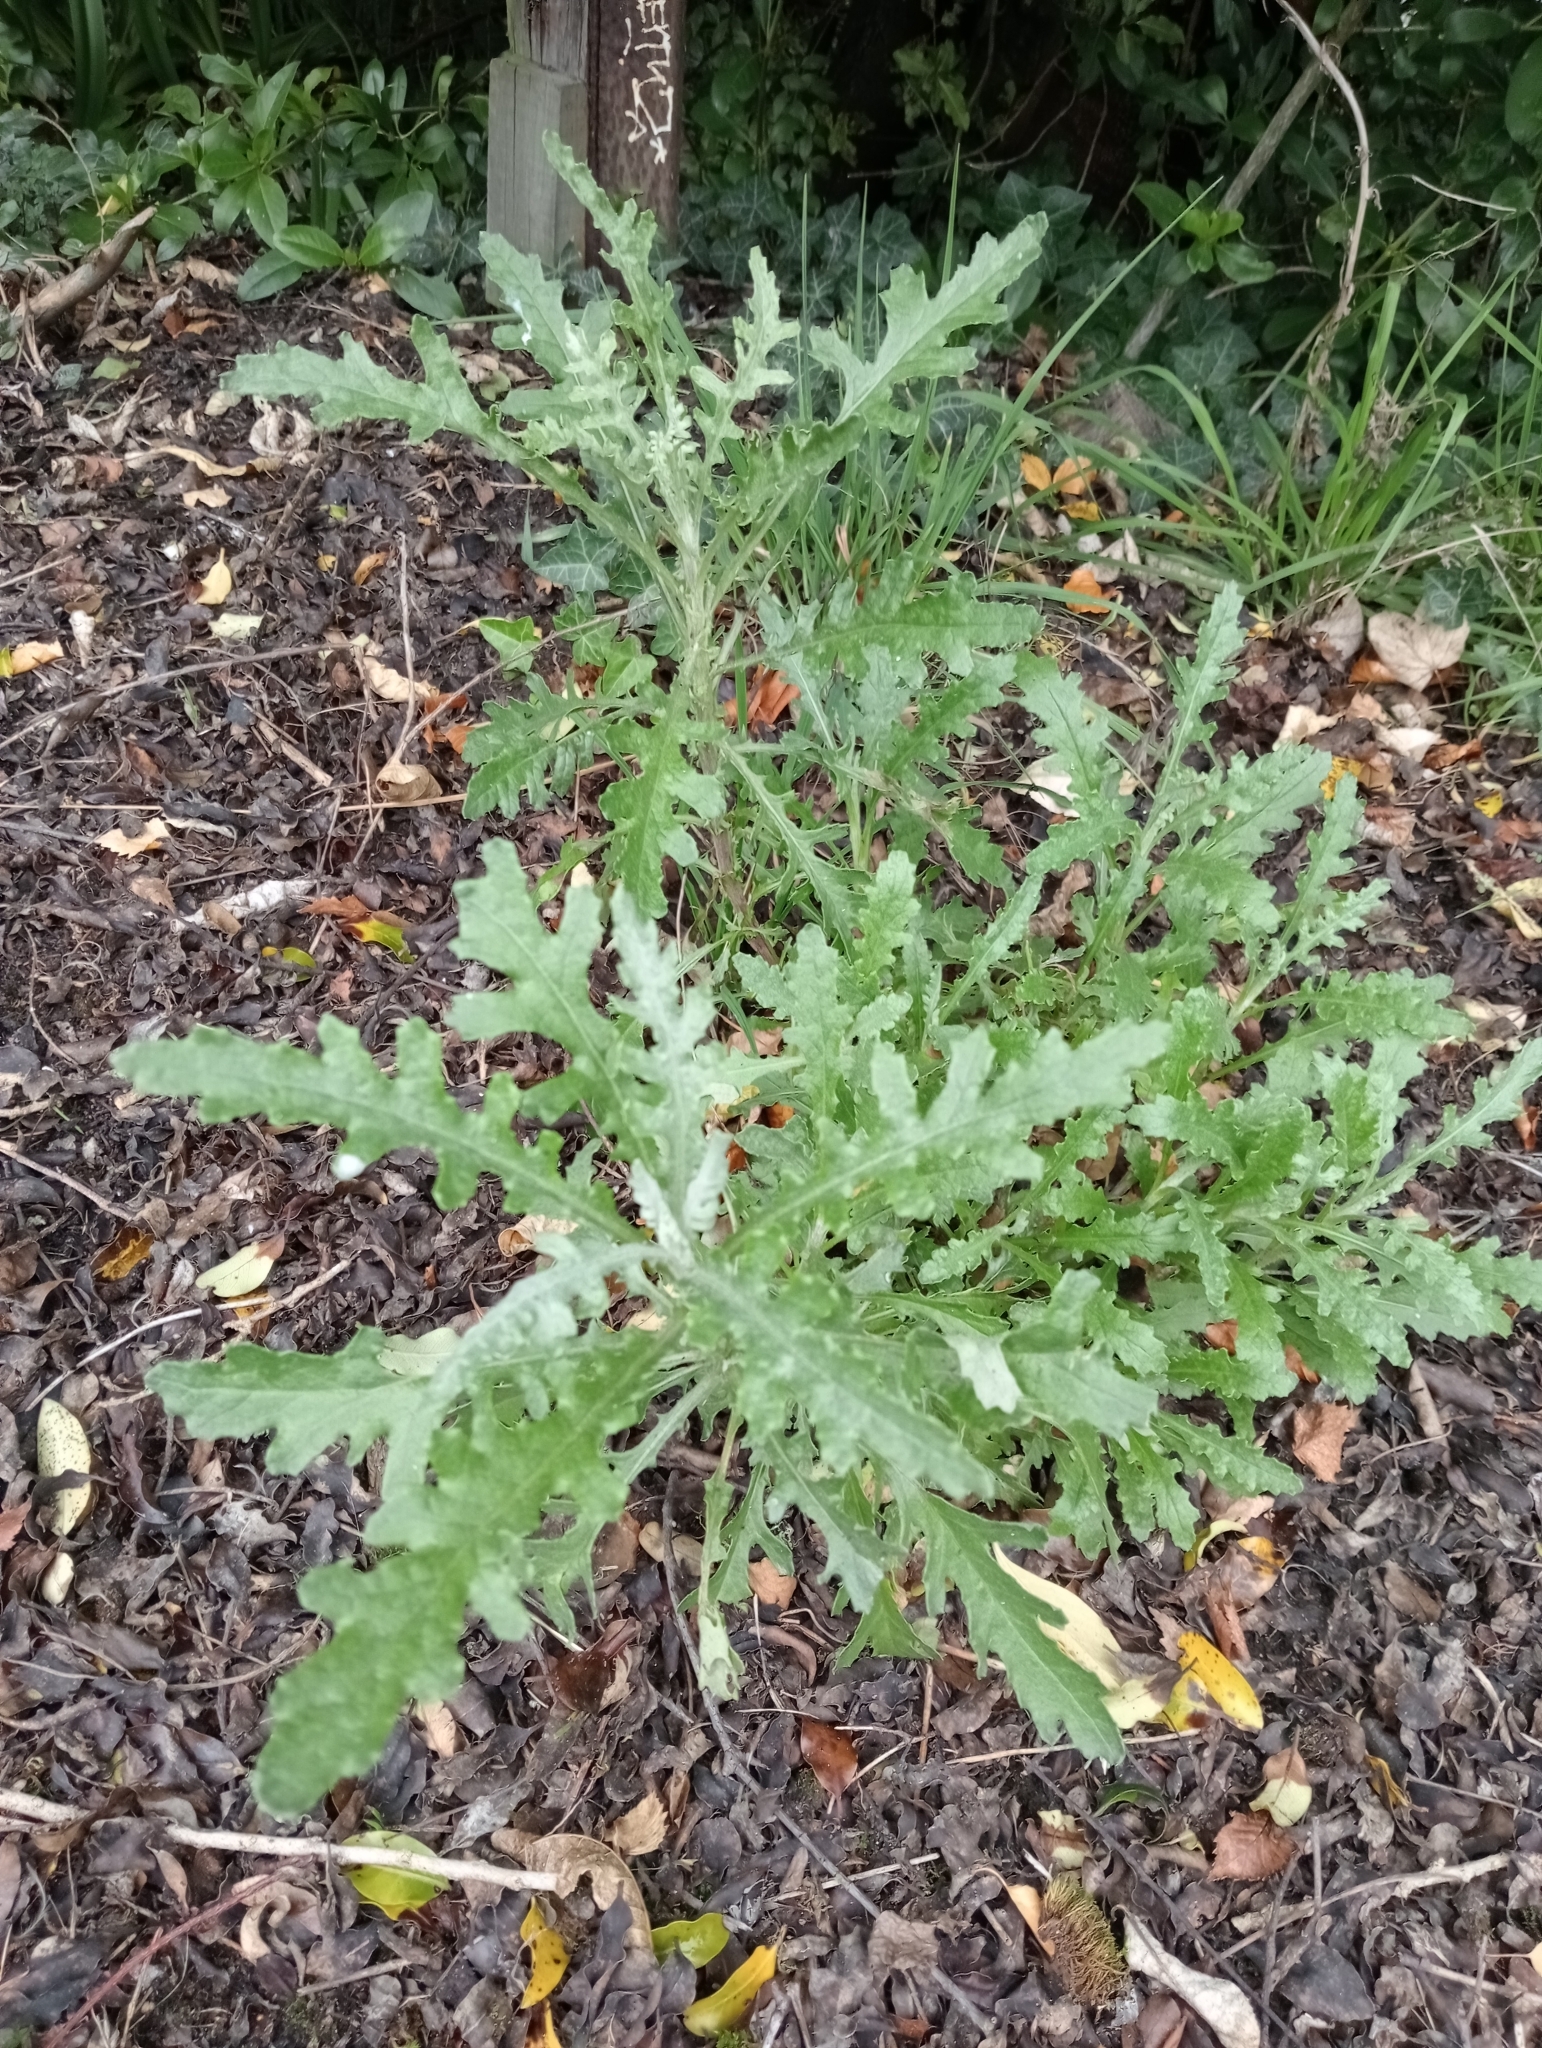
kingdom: Plantae
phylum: Tracheophyta
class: Magnoliopsida
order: Asterales
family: Asteraceae
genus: Senecio
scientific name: Senecio glomeratus
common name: Cutleaf burnweed
